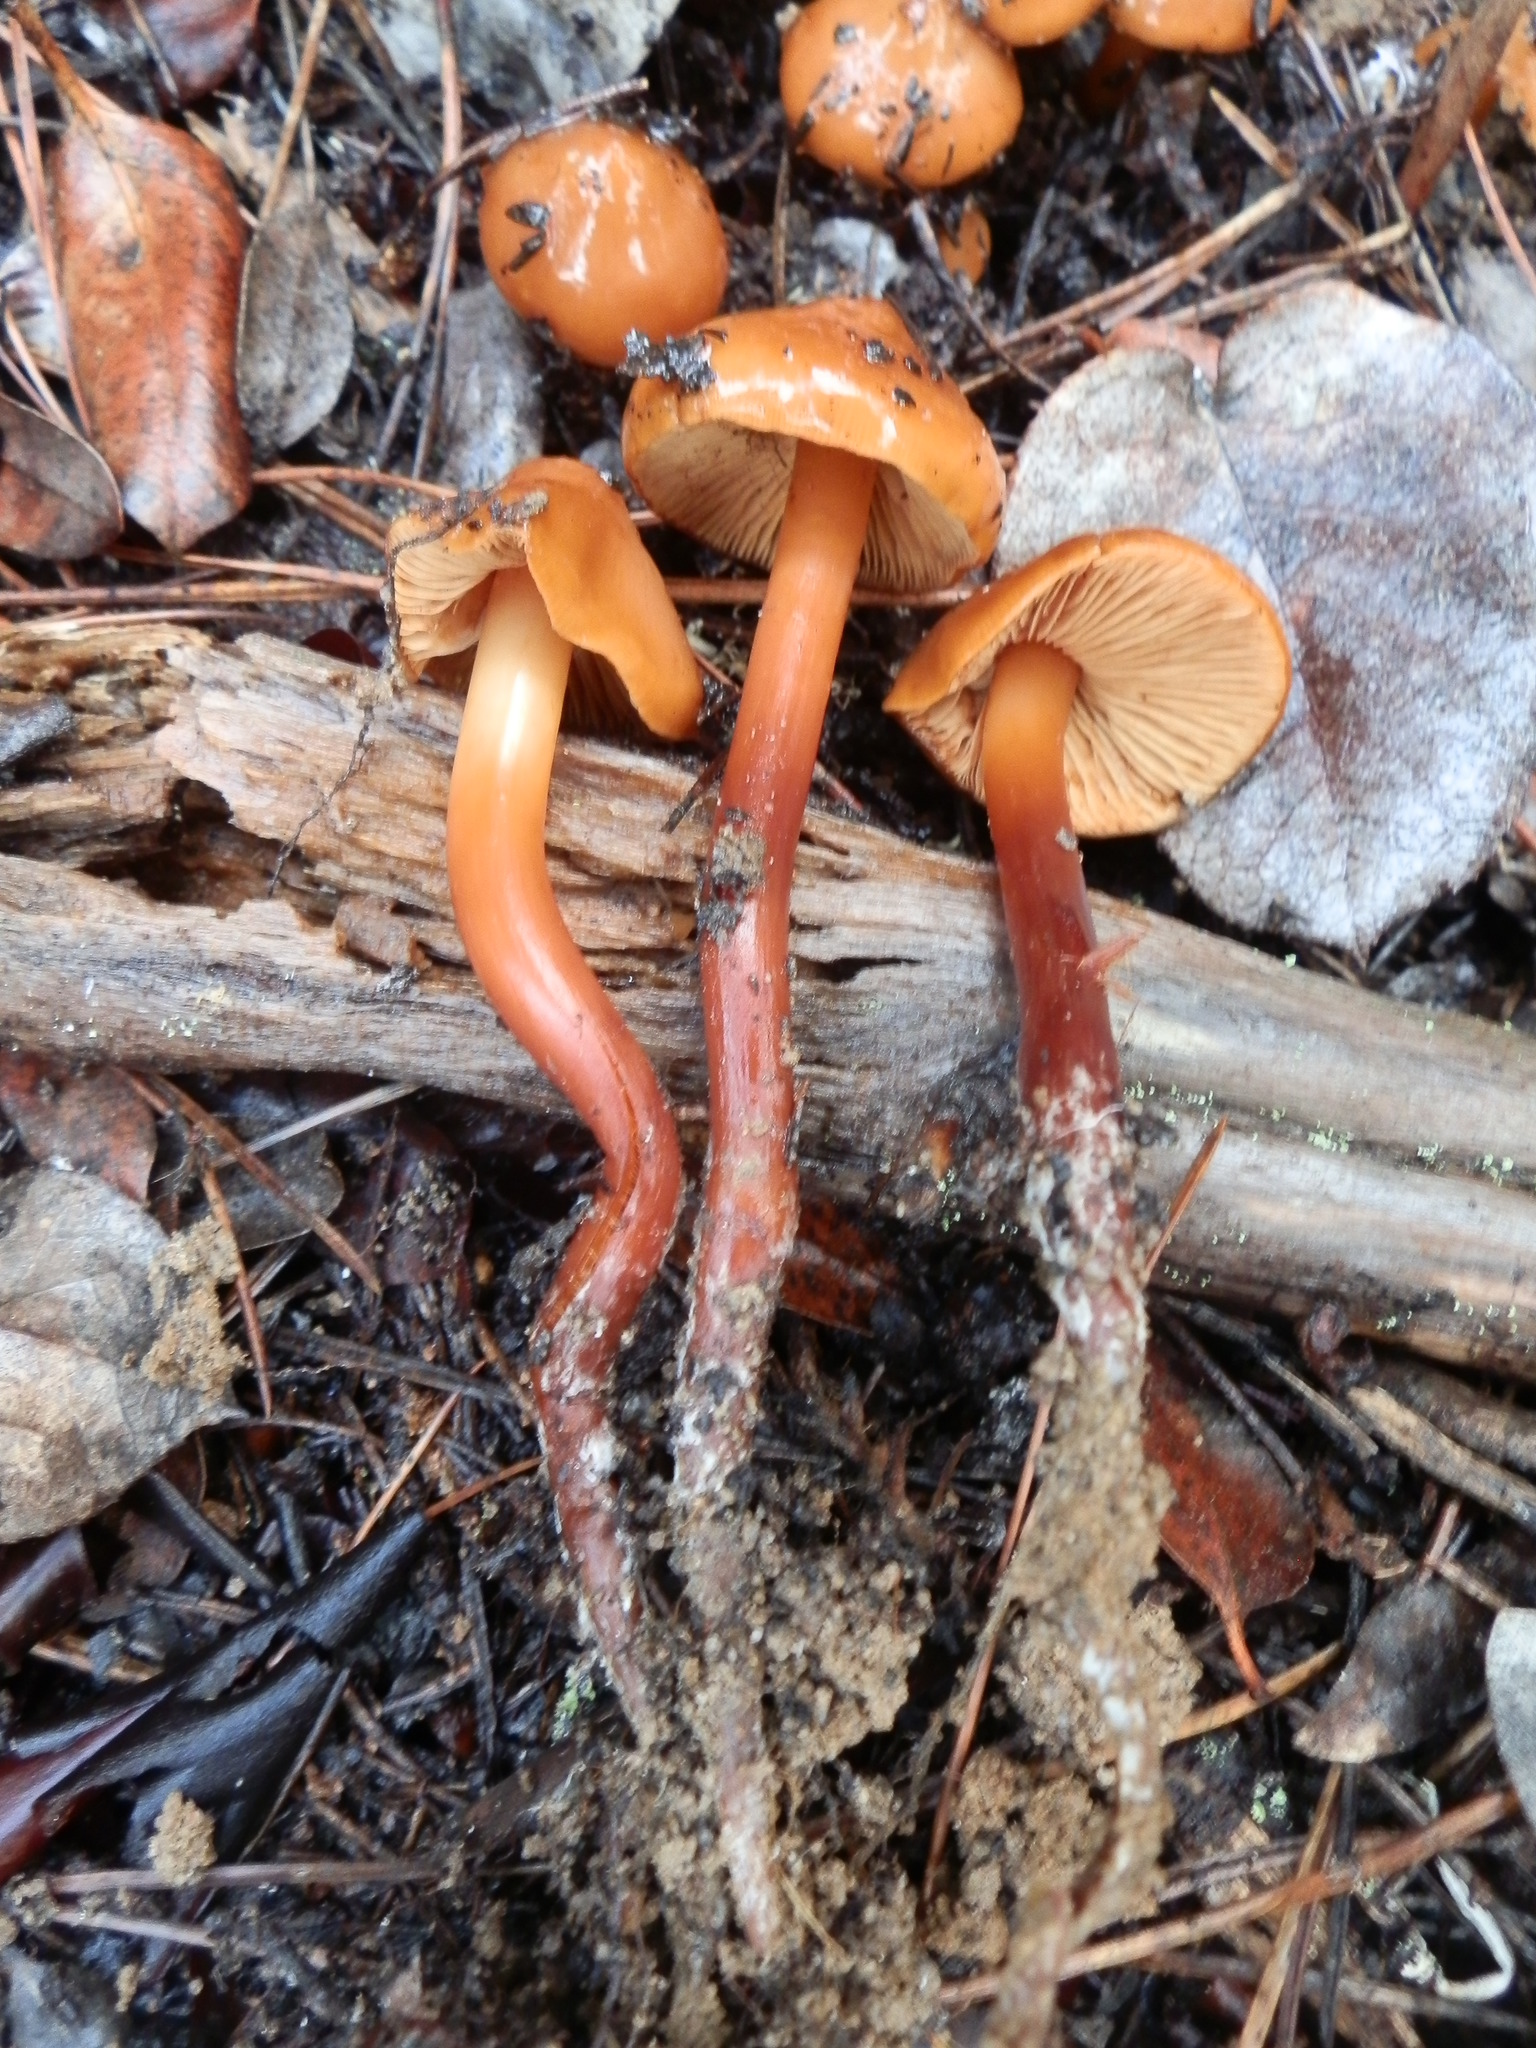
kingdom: Fungi
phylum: Basidiomycota
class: Agaricomycetes
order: Agaricales
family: Hymenogastraceae
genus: Phaeocollybia
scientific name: Phaeocollybia californica
